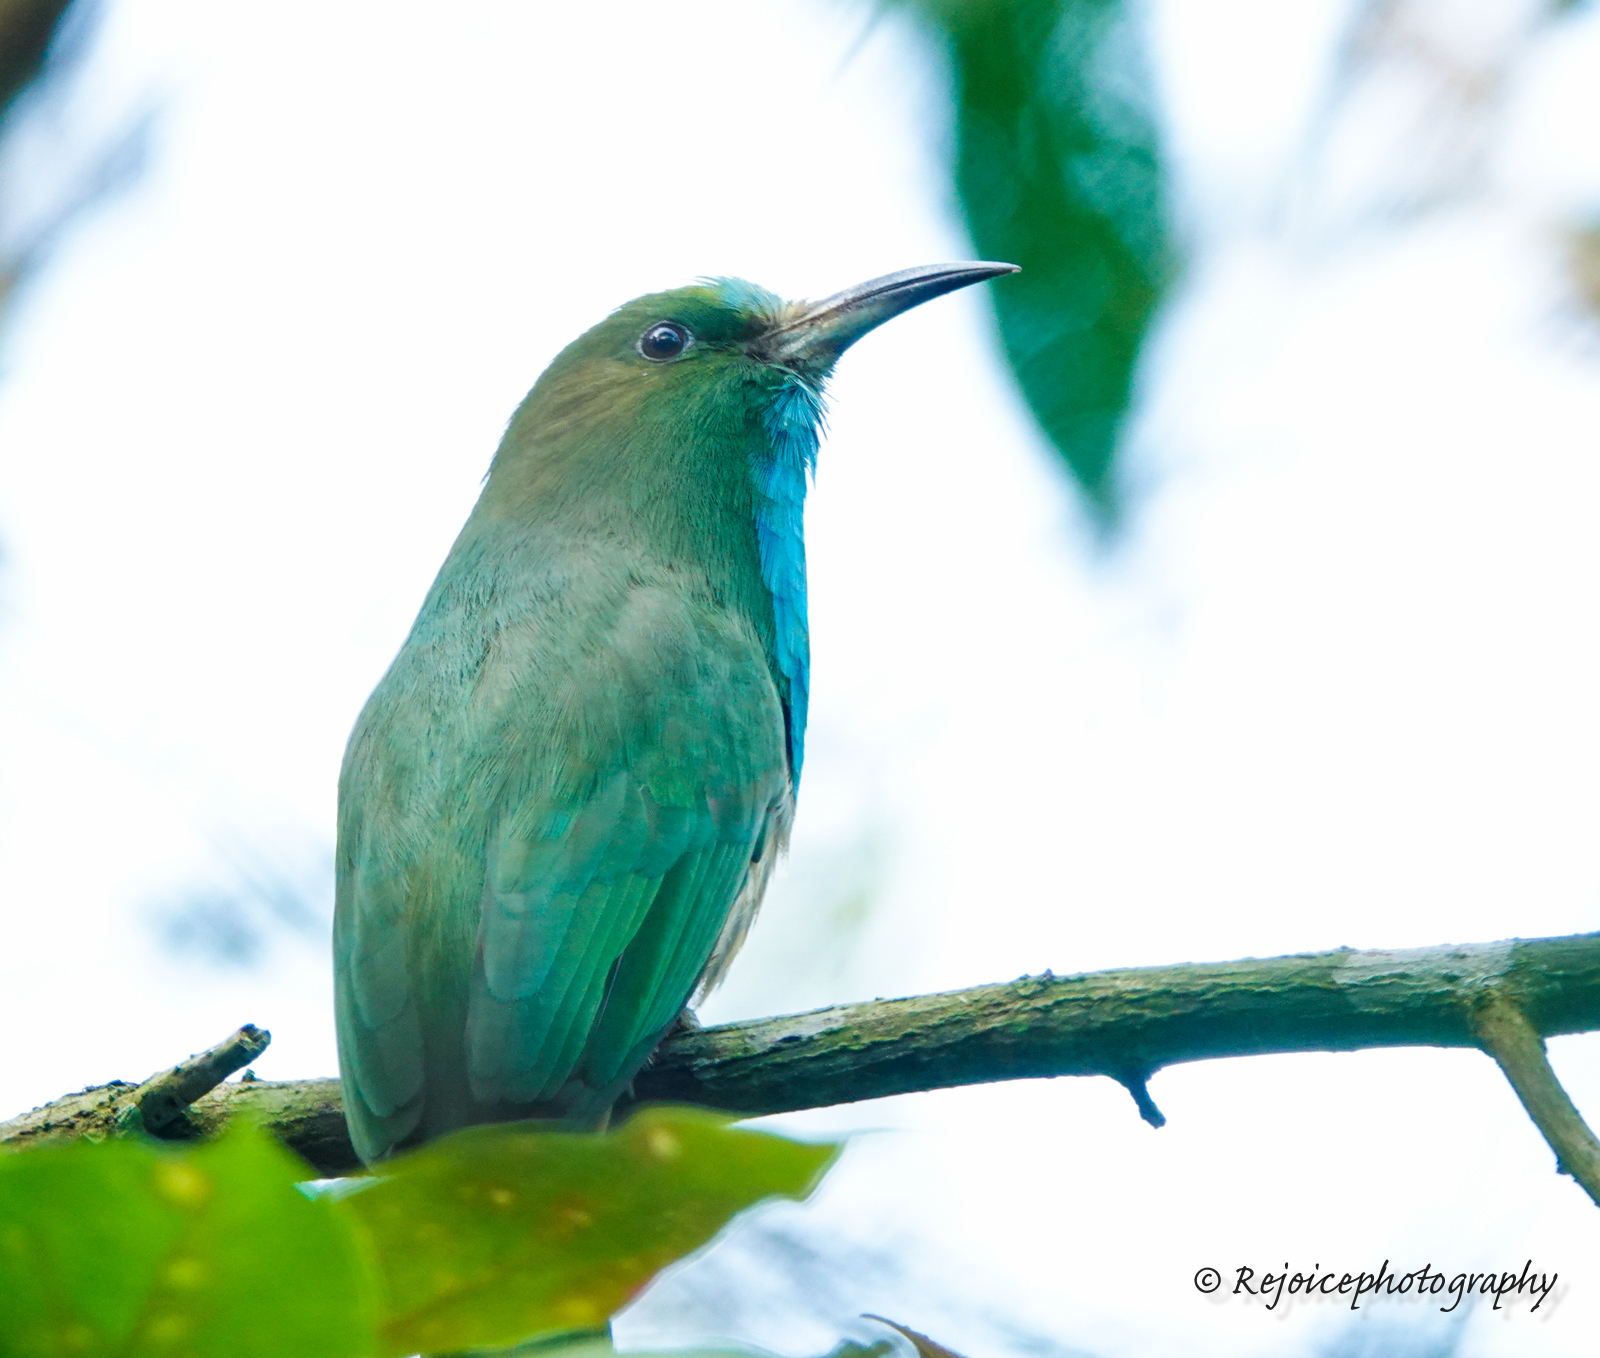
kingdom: Animalia
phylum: Chordata
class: Aves
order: Coraciiformes
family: Meropidae
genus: Nyctyornis
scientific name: Nyctyornis athertoni
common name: Blue-bearded bee-eater
